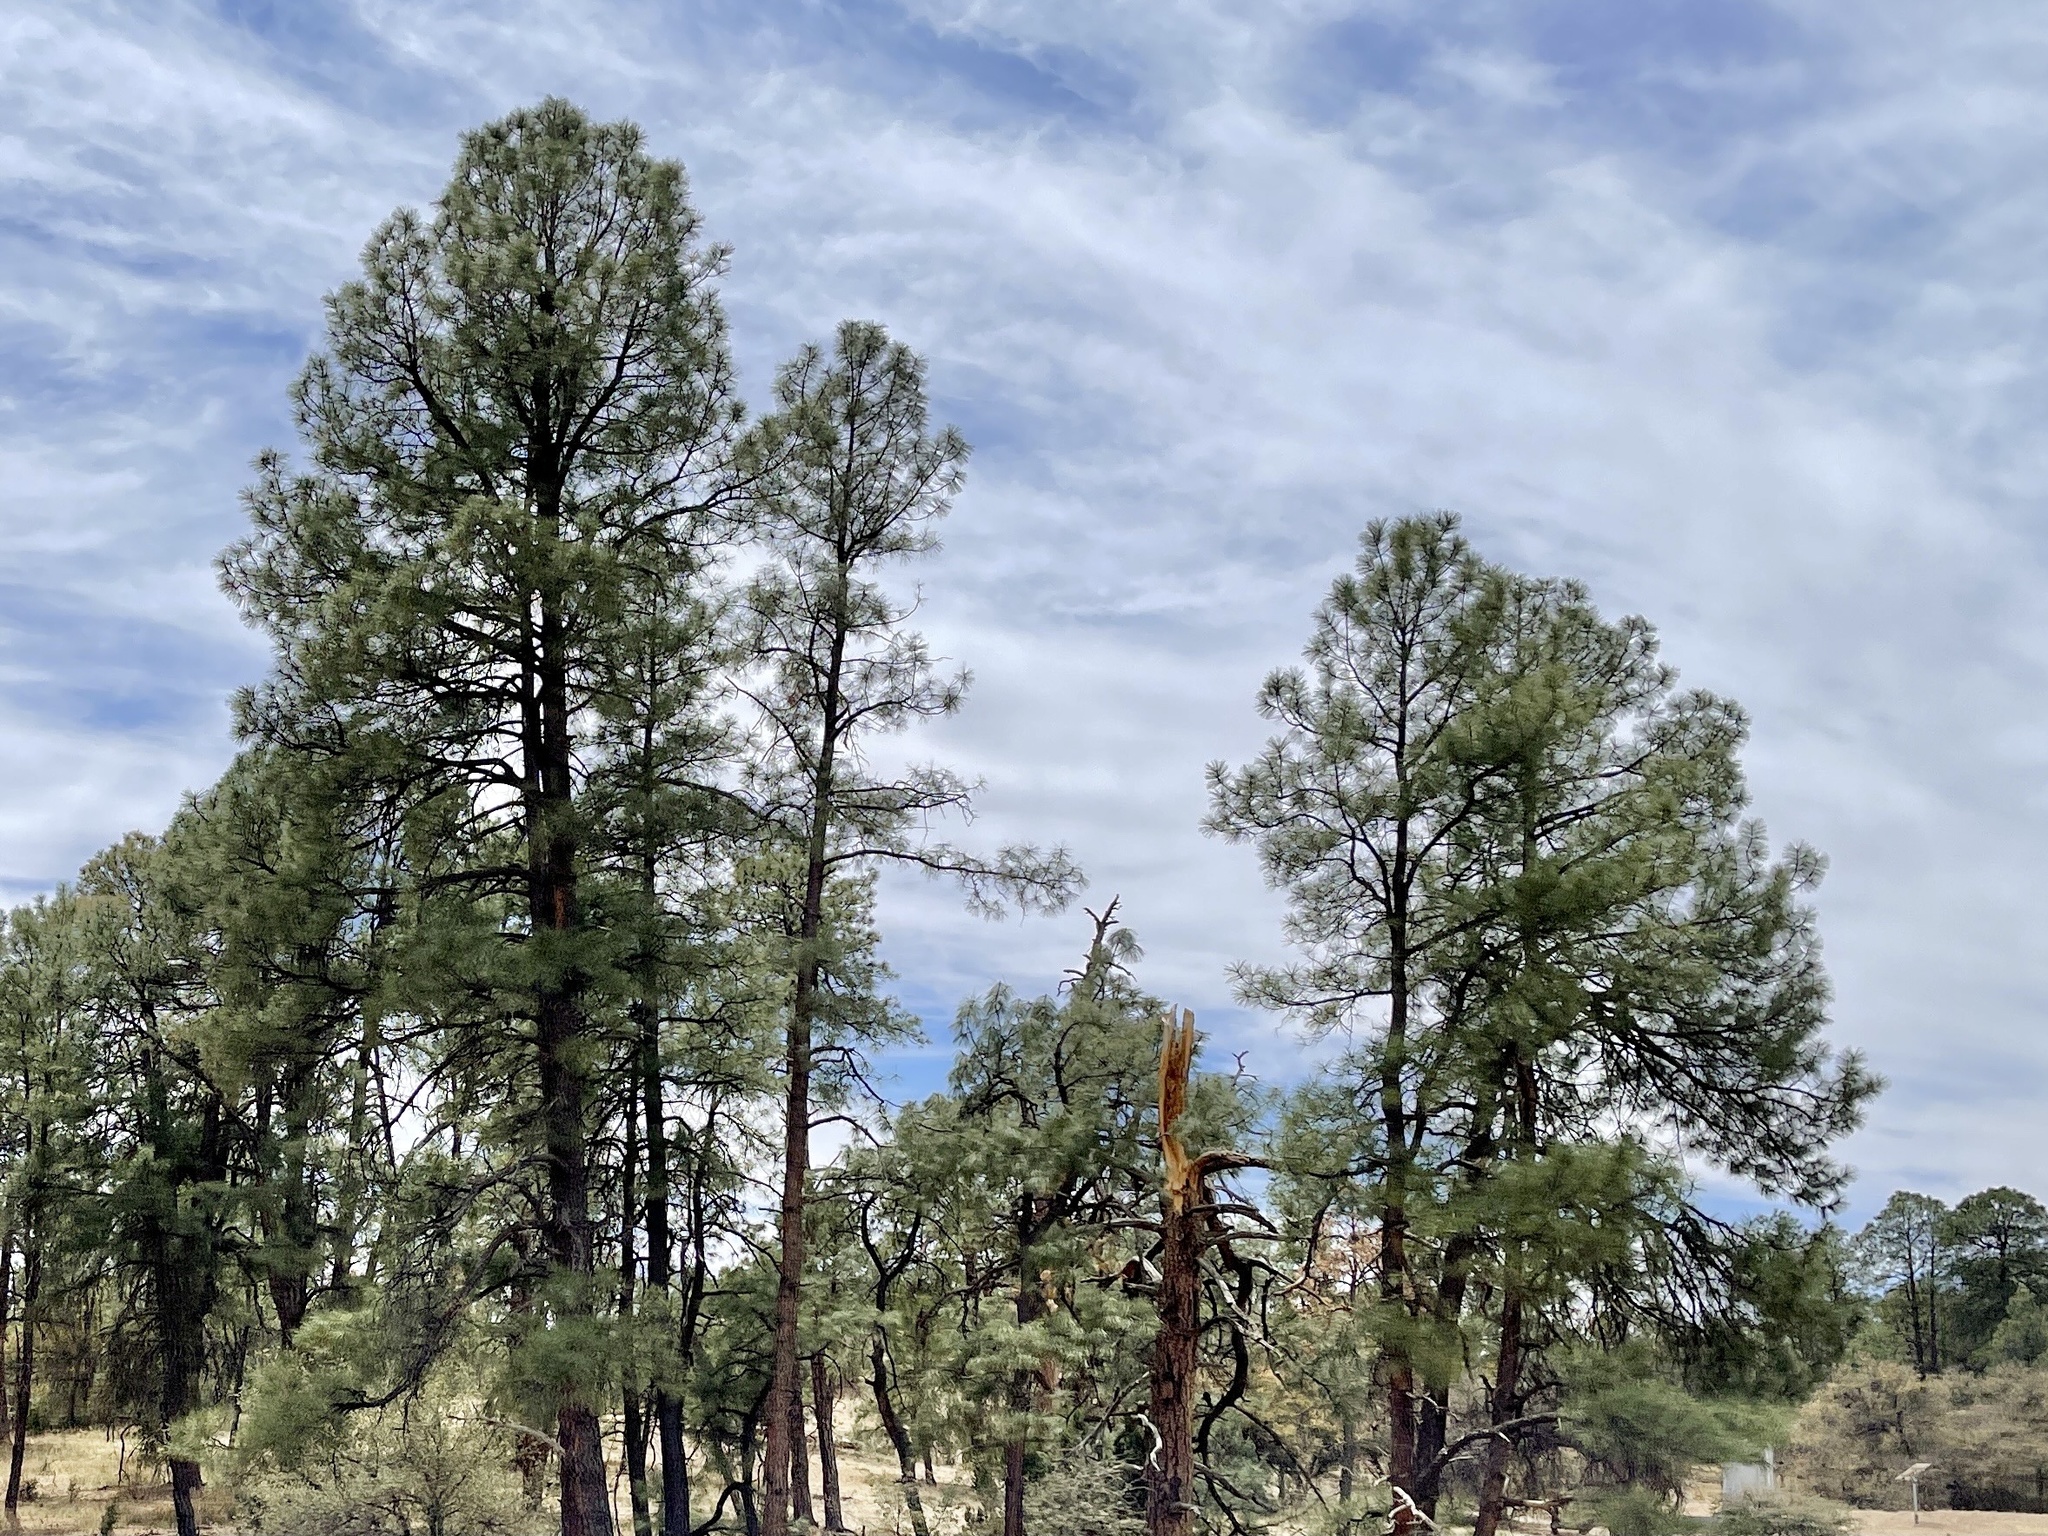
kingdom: Plantae
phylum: Tracheophyta
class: Pinopsida
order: Pinales
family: Pinaceae
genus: Pinus
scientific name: Pinus ponderosa
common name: Western yellow-pine
